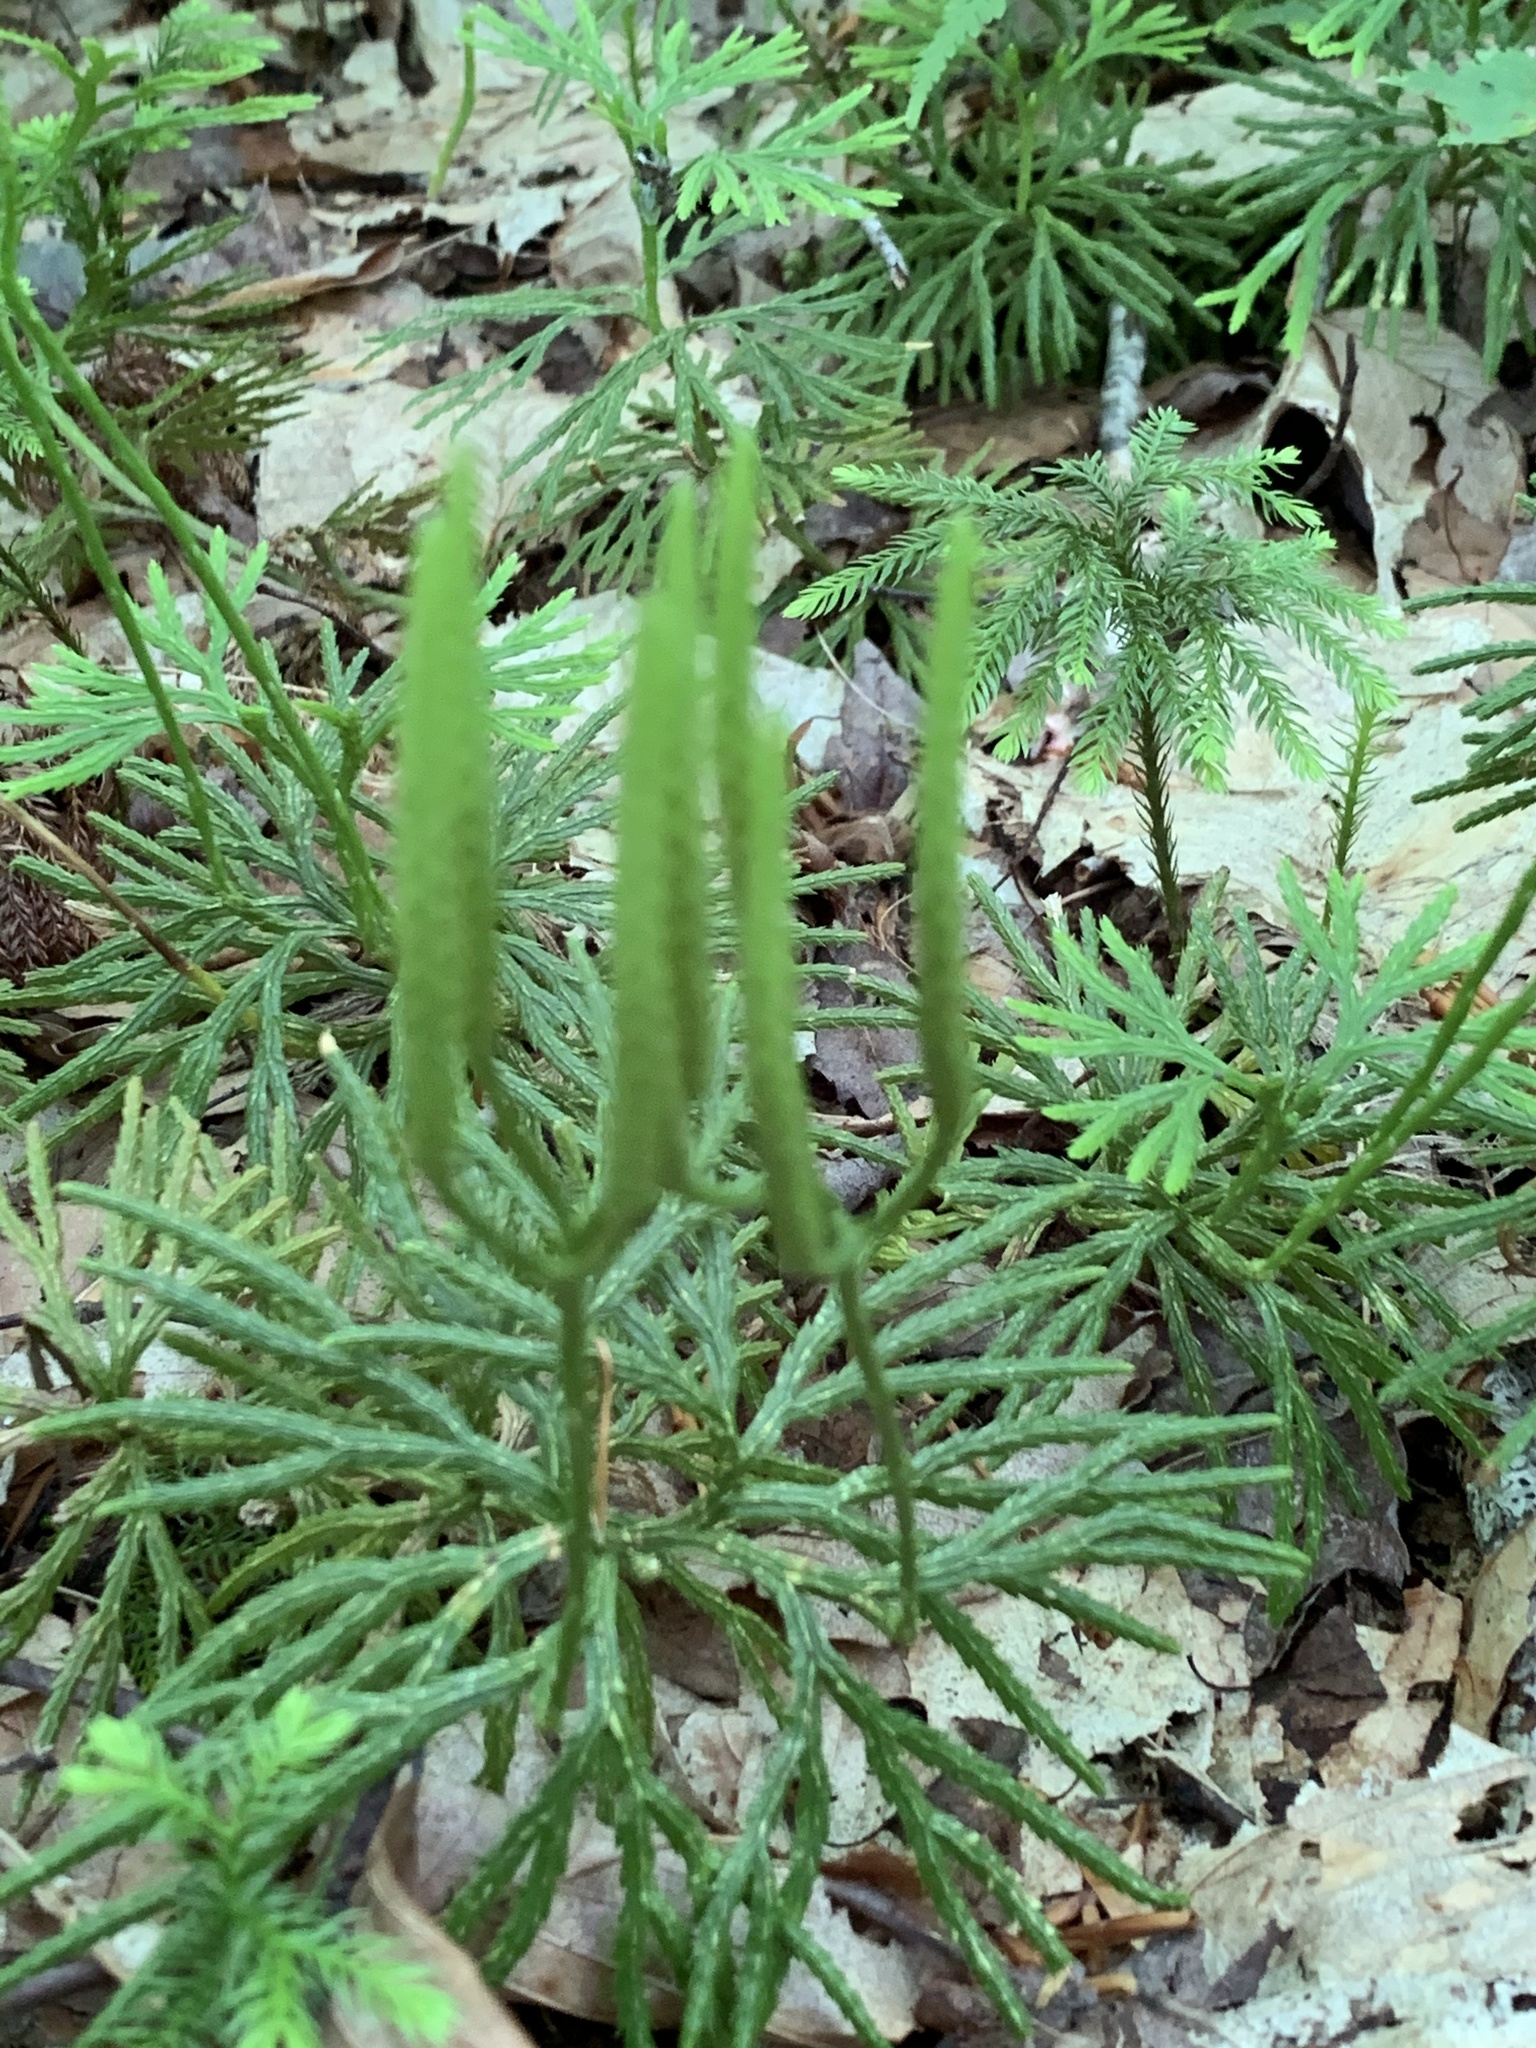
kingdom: Plantae
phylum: Tracheophyta
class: Lycopodiopsida
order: Lycopodiales
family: Lycopodiaceae
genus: Diphasiastrum
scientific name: Diphasiastrum digitatum
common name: Southern running-pine
